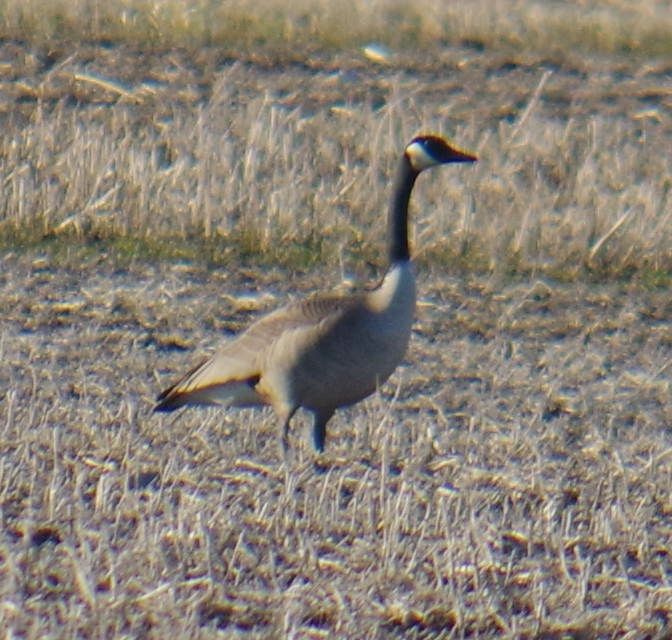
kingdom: Animalia
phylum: Chordata
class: Aves
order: Anseriformes
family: Anatidae
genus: Branta
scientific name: Branta canadensis
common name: Canada goose
